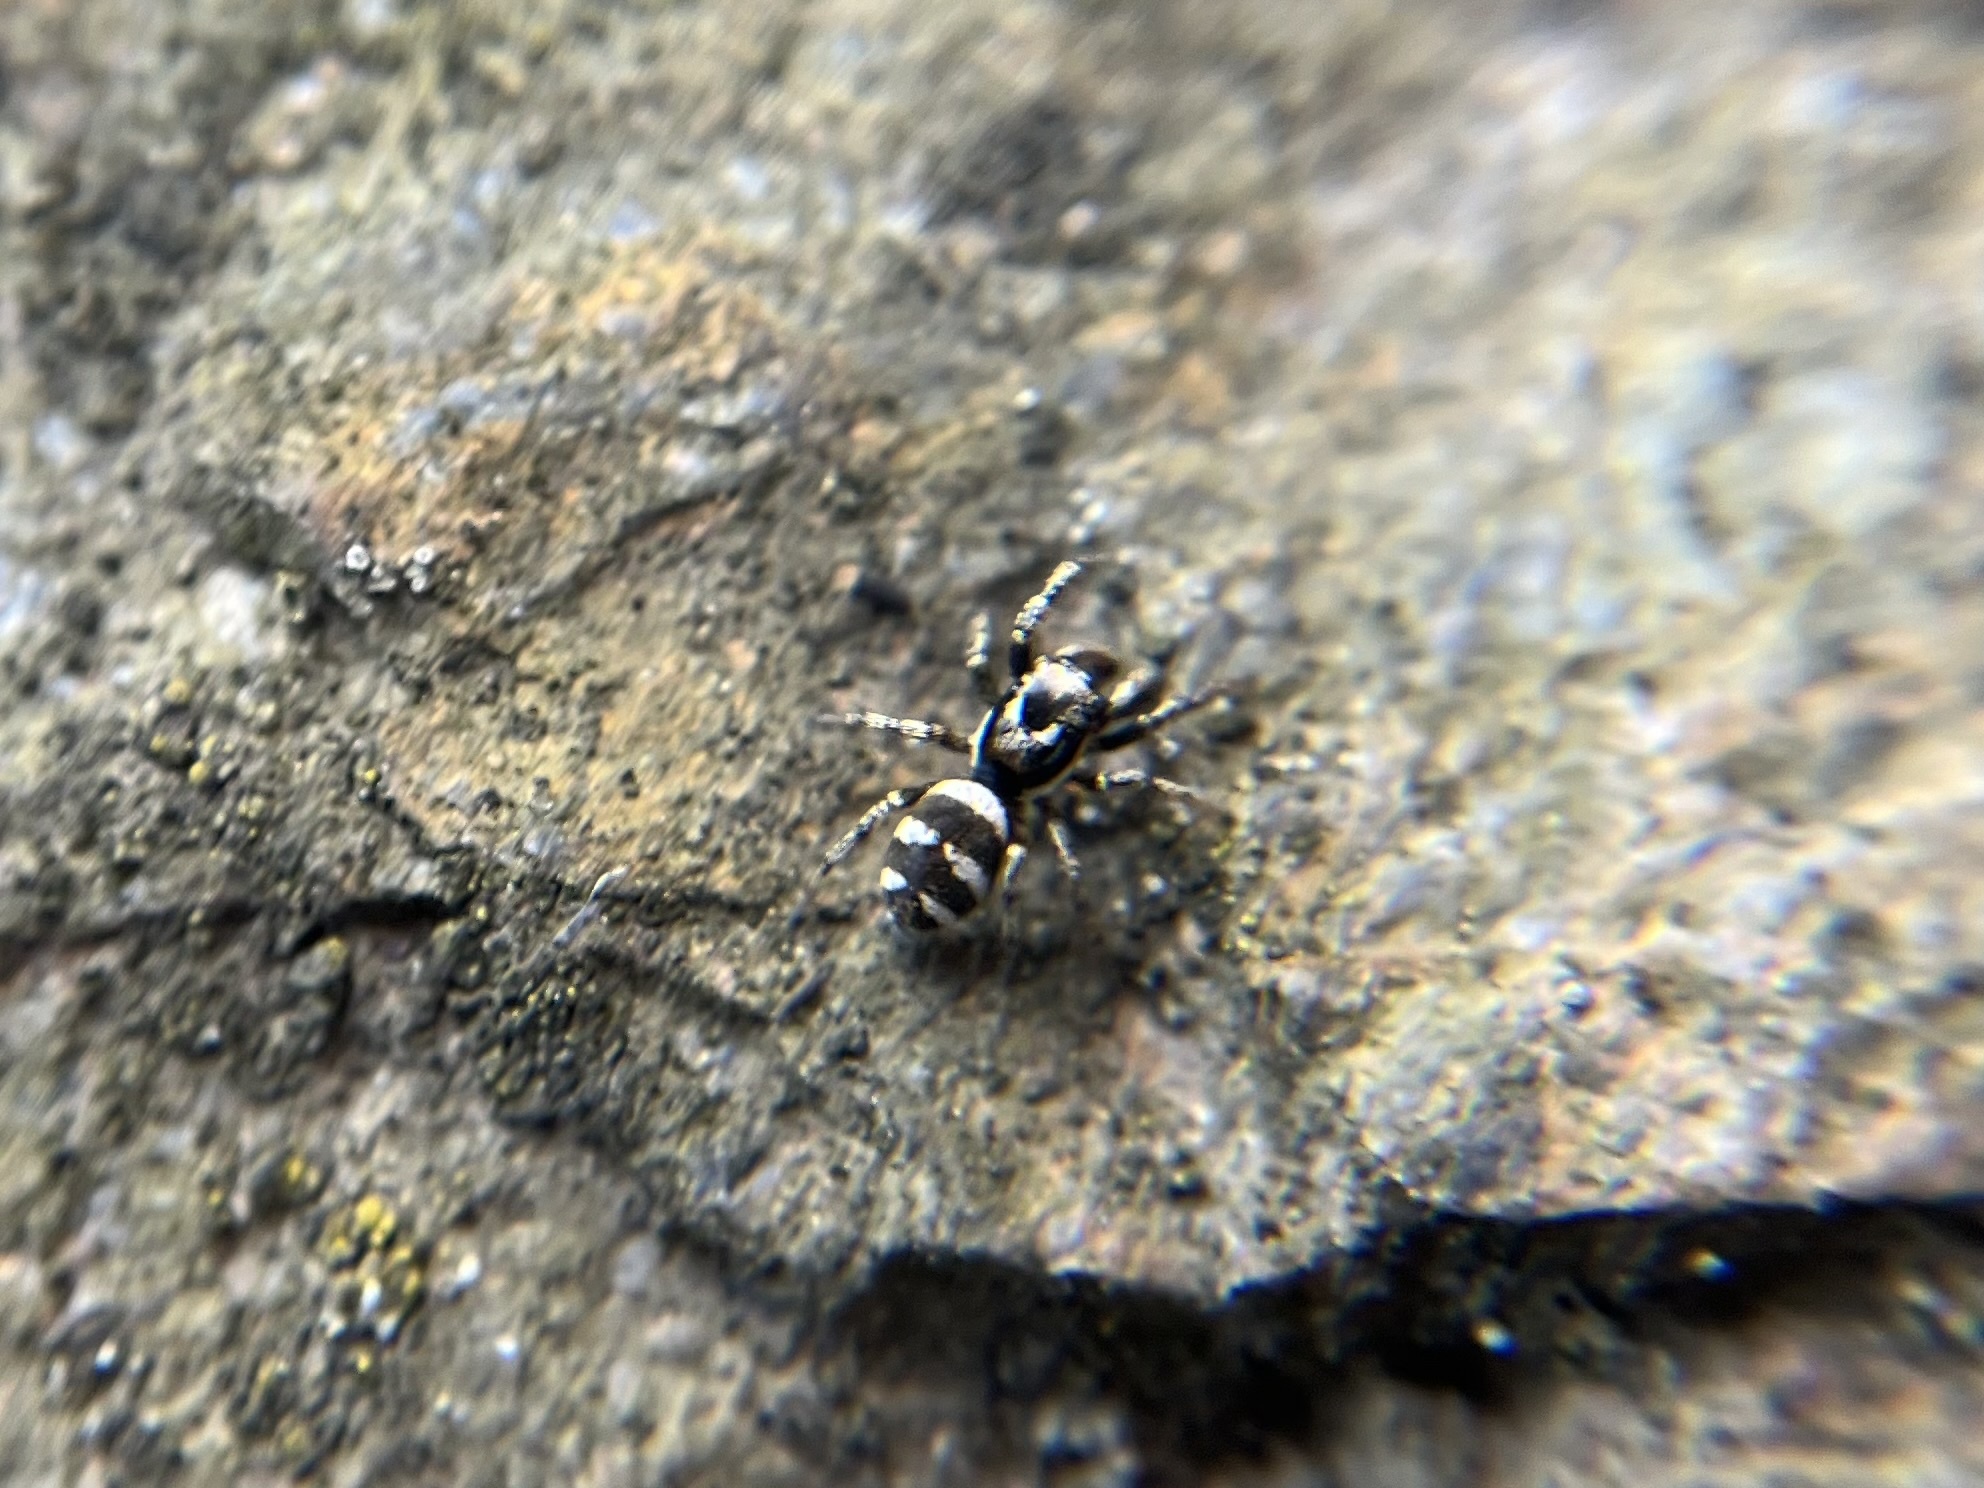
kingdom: Animalia
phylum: Arthropoda
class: Arachnida
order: Araneae
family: Salticidae
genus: Salticus
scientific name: Salticus scenicus
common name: Zebra jumper
